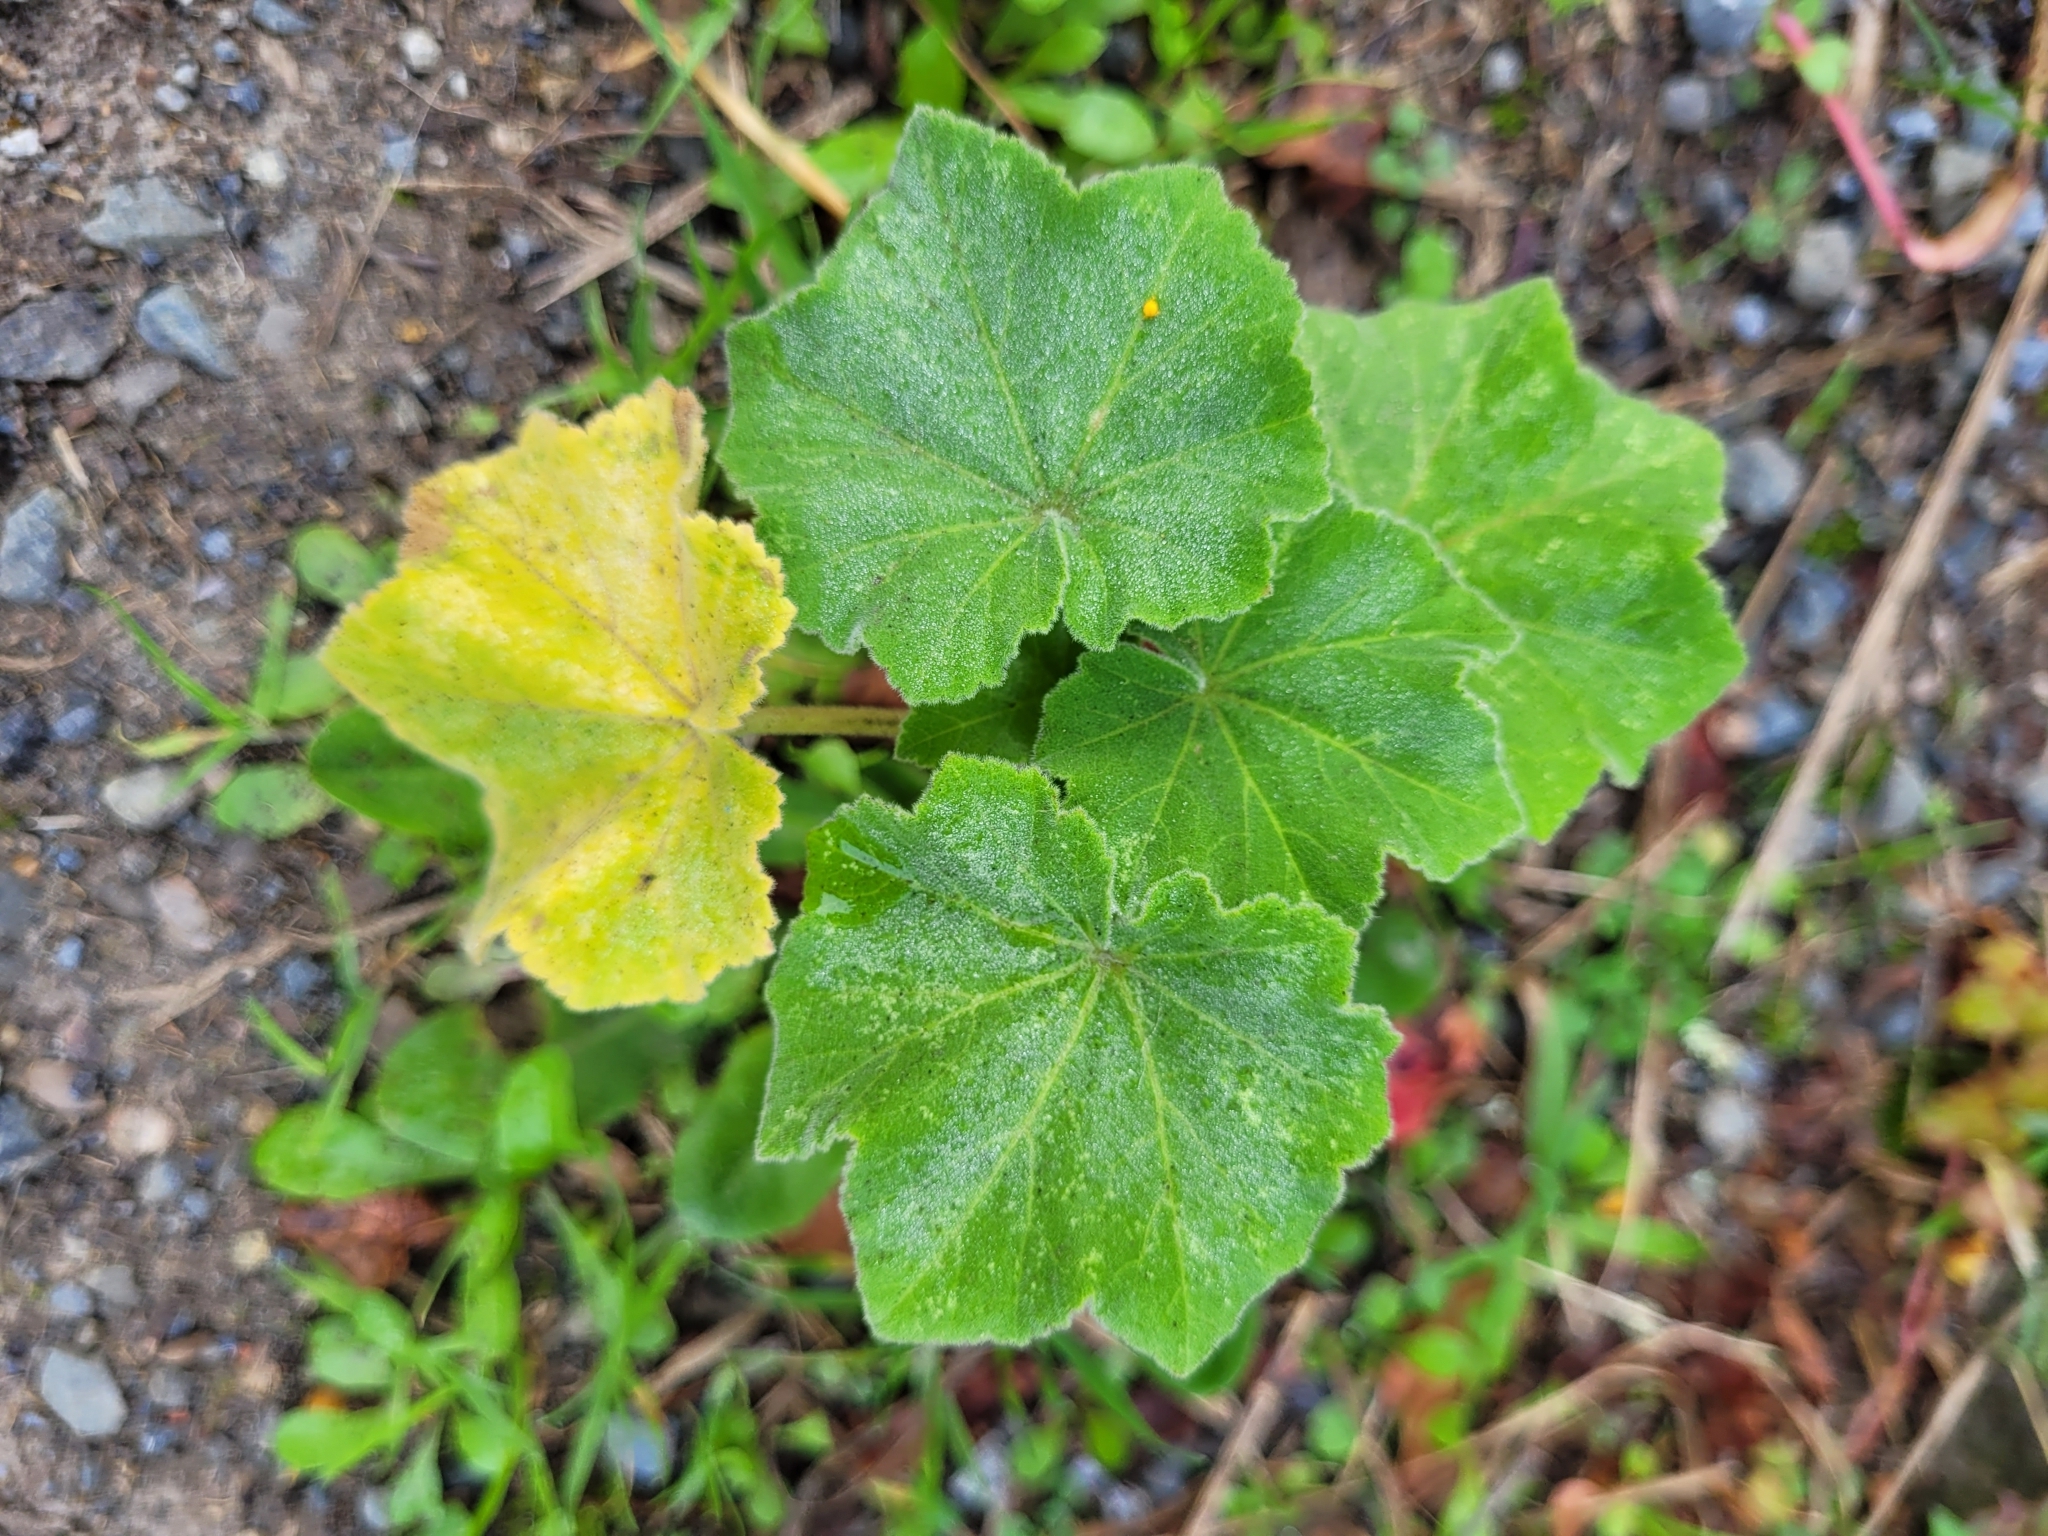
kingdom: Plantae
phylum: Tracheophyta
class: Magnoliopsida
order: Malvales
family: Malvaceae
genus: Malva
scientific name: Malva arborea
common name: Tree mallow
